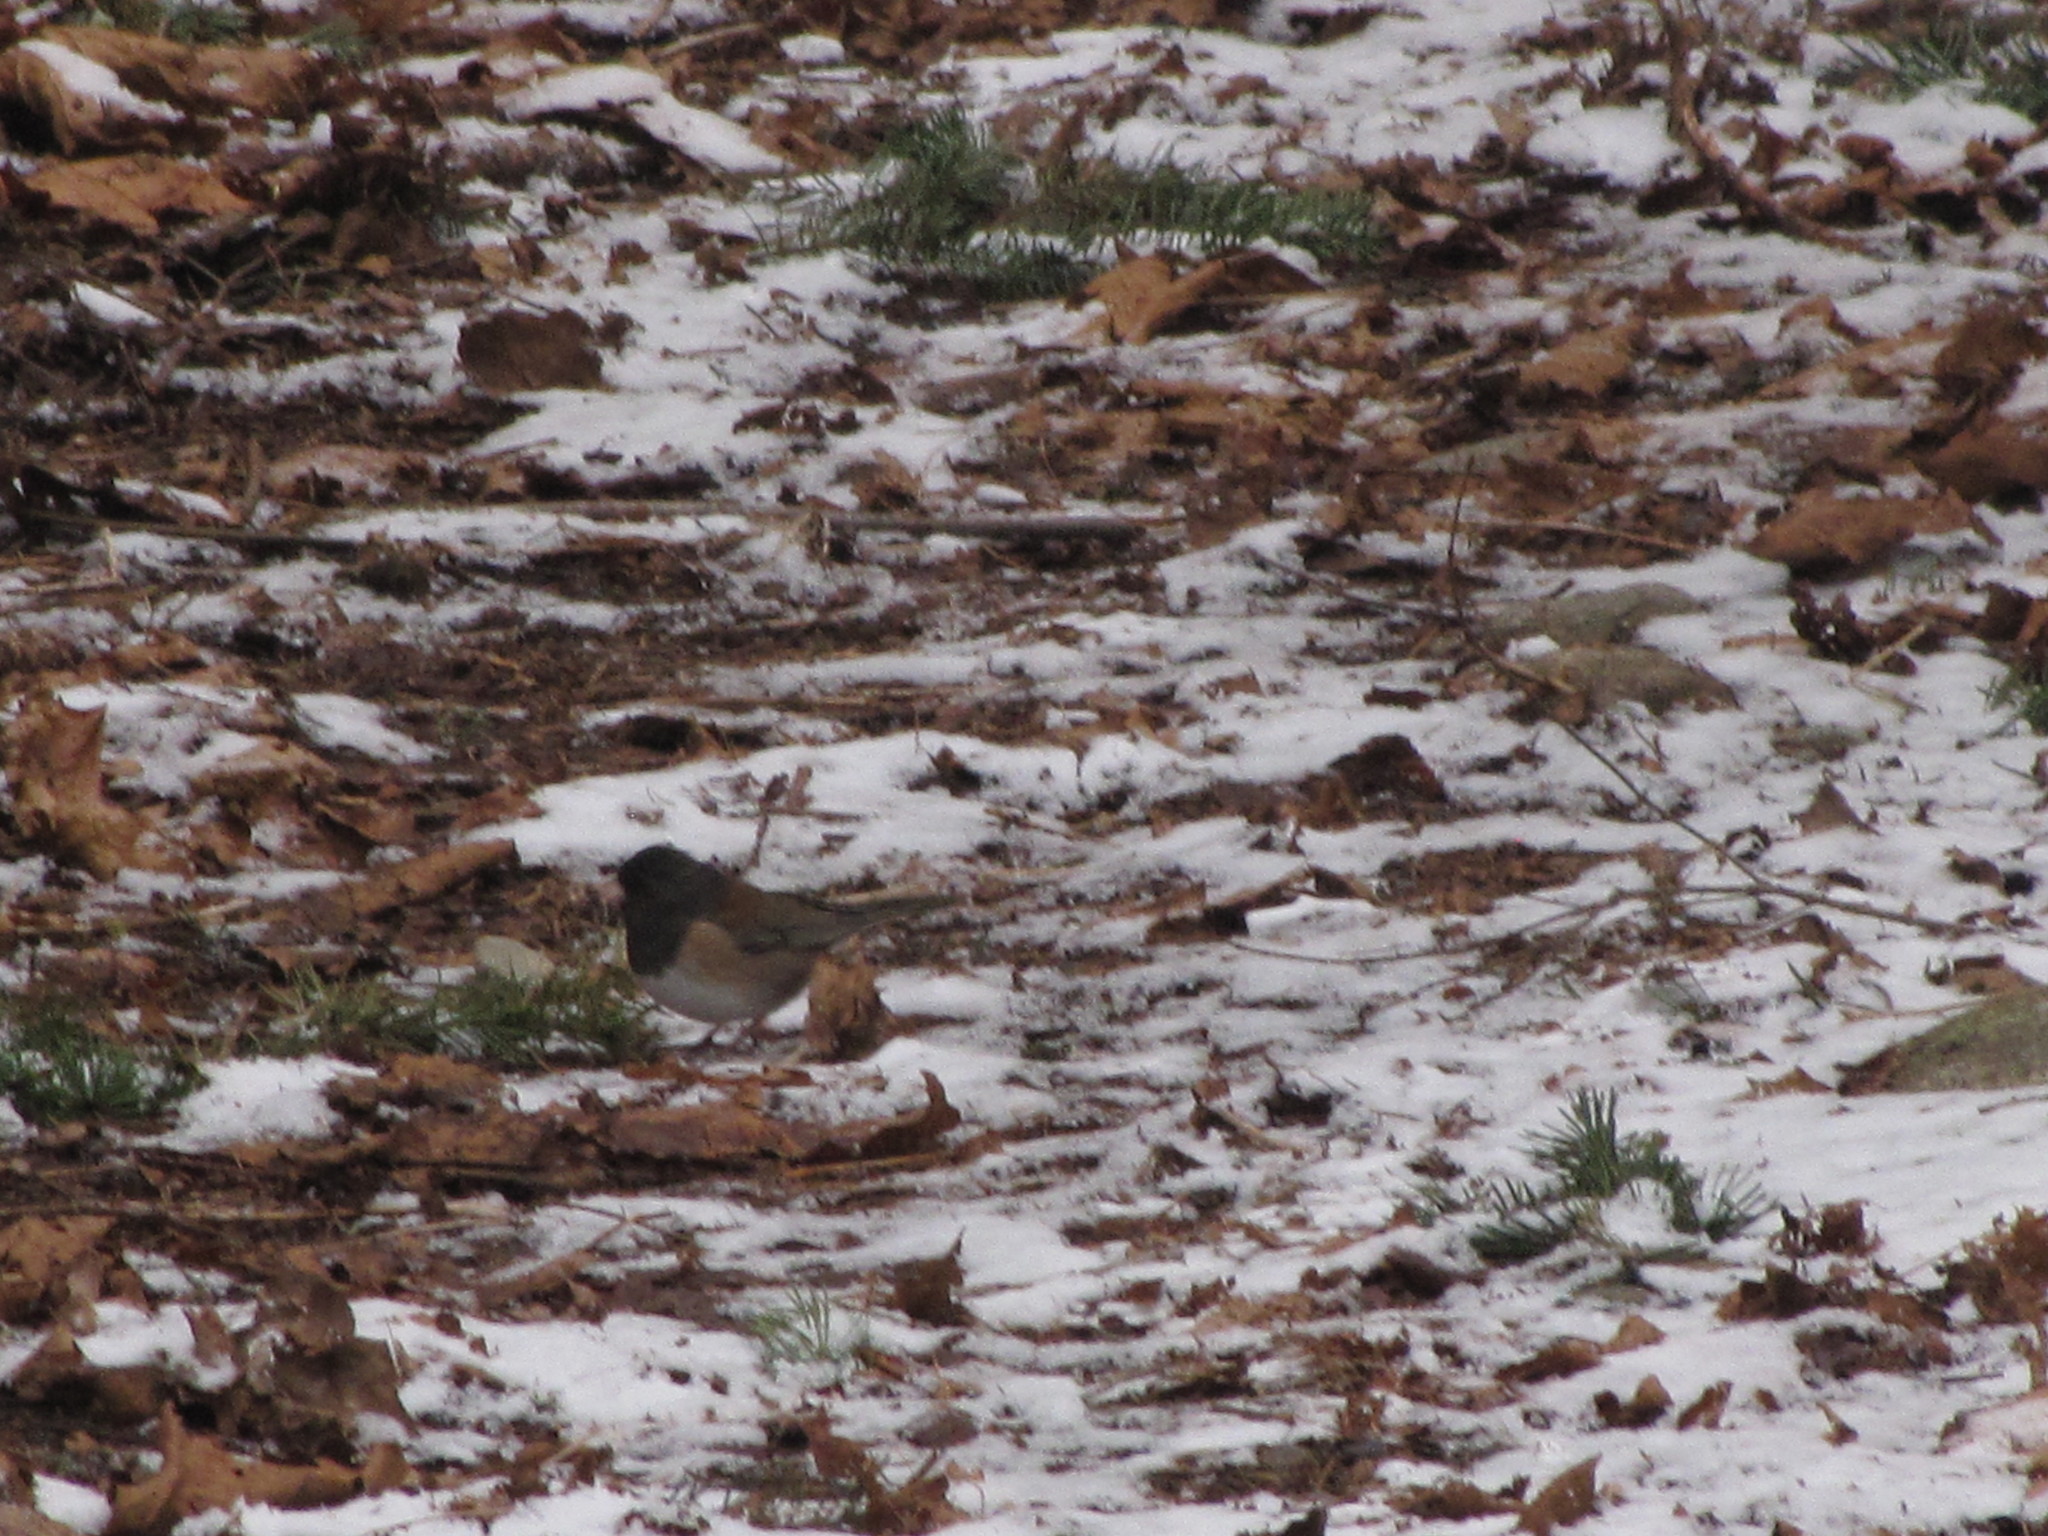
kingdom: Animalia
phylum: Chordata
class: Aves
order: Passeriformes
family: Passerellidae
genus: Junco
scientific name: Junco hyemalis
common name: Dark-eyed junco
